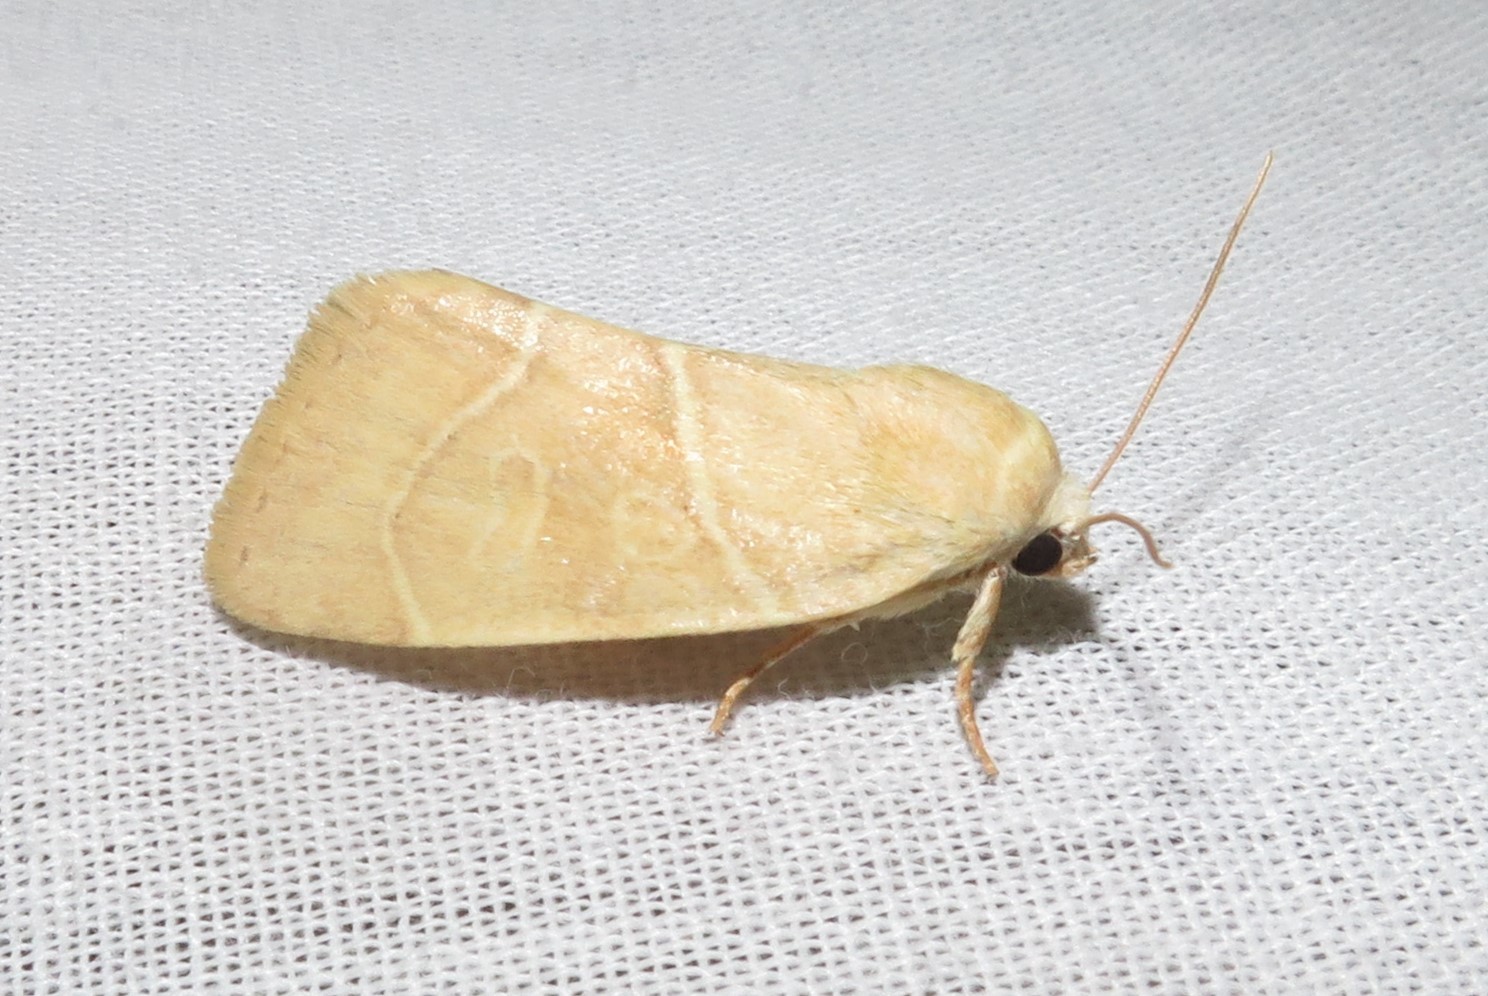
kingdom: Animalia
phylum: Arthropoda
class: Insecta
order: Lepidoptera
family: Noctuidae
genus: Cosmia
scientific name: Cosmia calami
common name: American dun-bar moth
